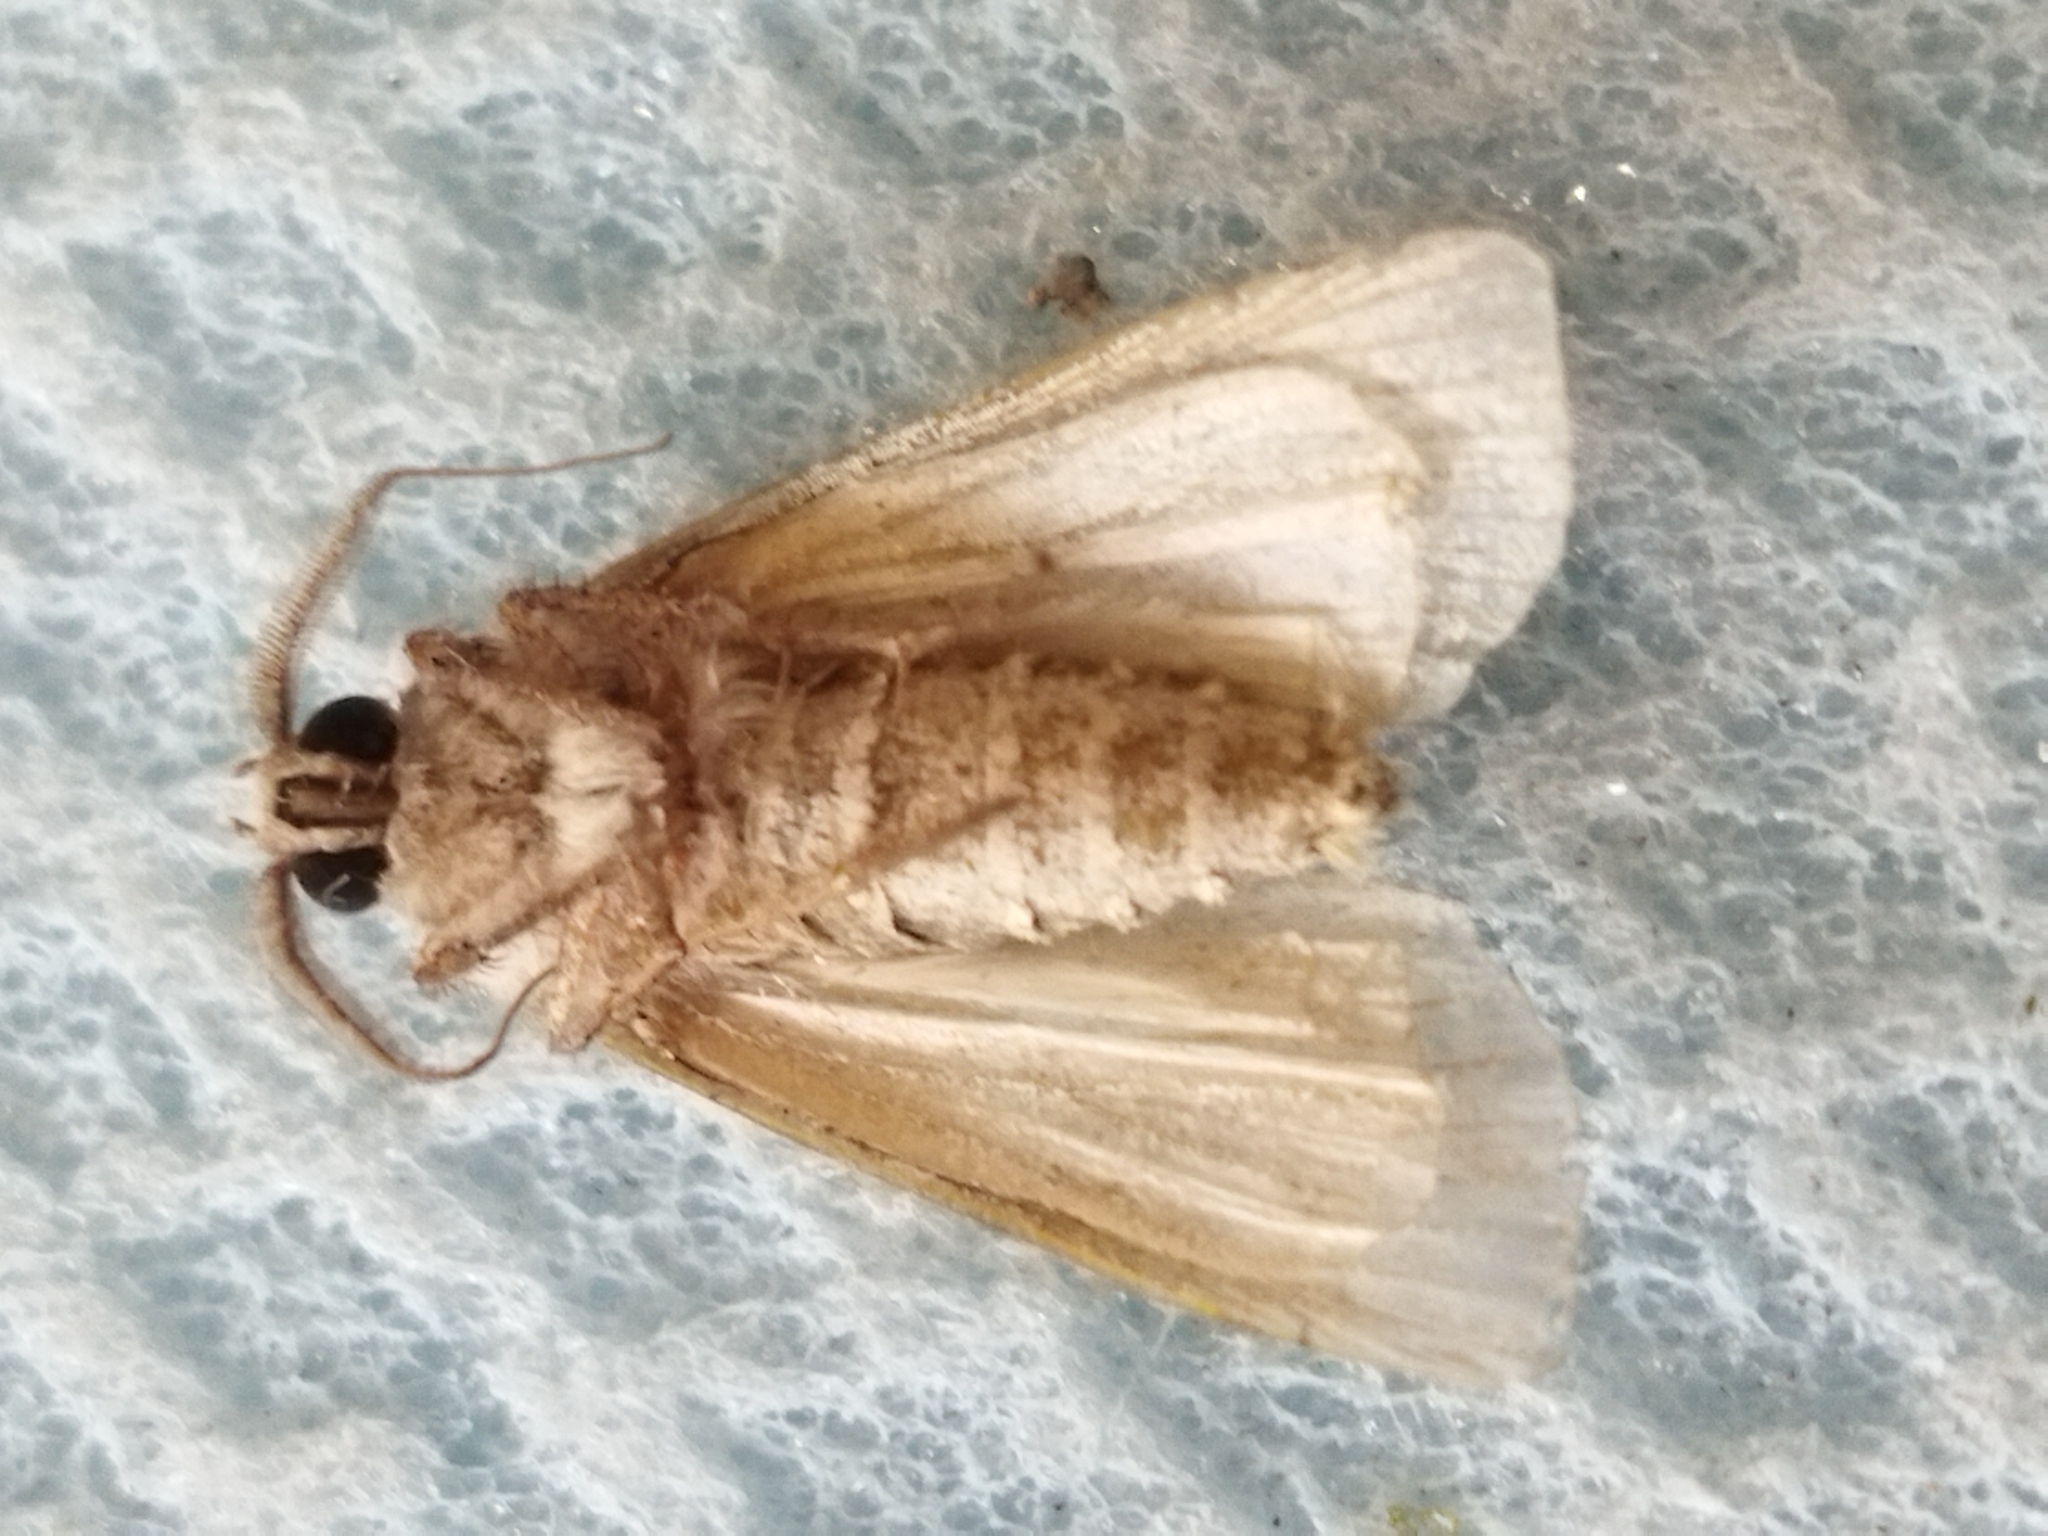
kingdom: Animalia
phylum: Arthropoda
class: Insecta
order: Lepidoptera
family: Noctuidae
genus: Agrotis
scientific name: Agrotis segetum
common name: Turnip moth
